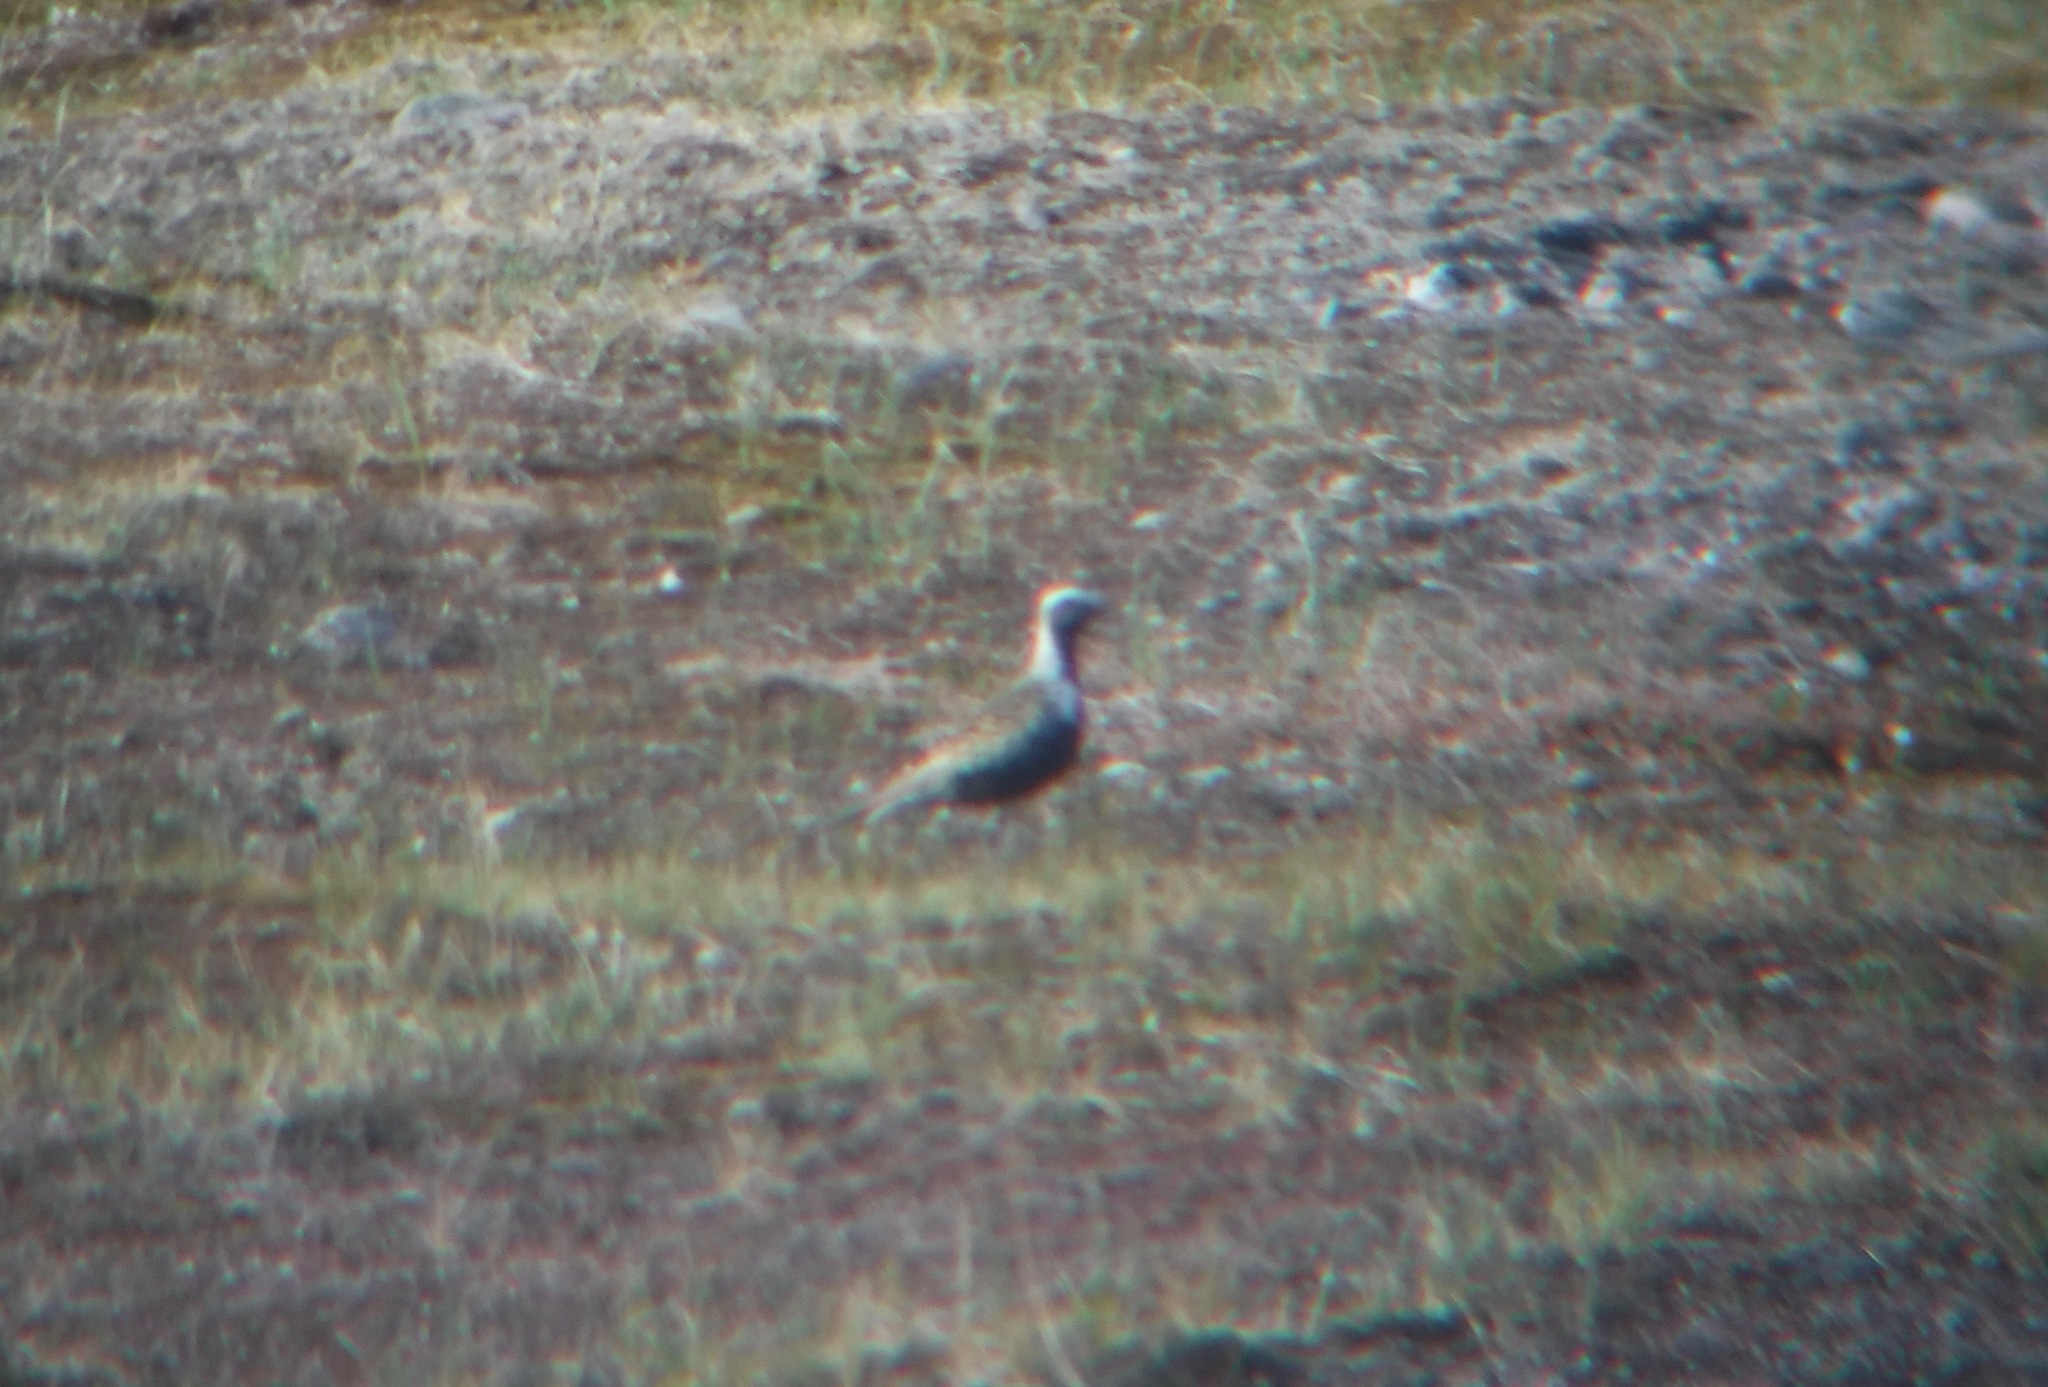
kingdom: Animalia
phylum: Chordata
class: Aves
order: Charadriiformes
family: Charadriidae
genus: Pluvialis
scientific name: Pluvialis dominica
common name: American golden plover
